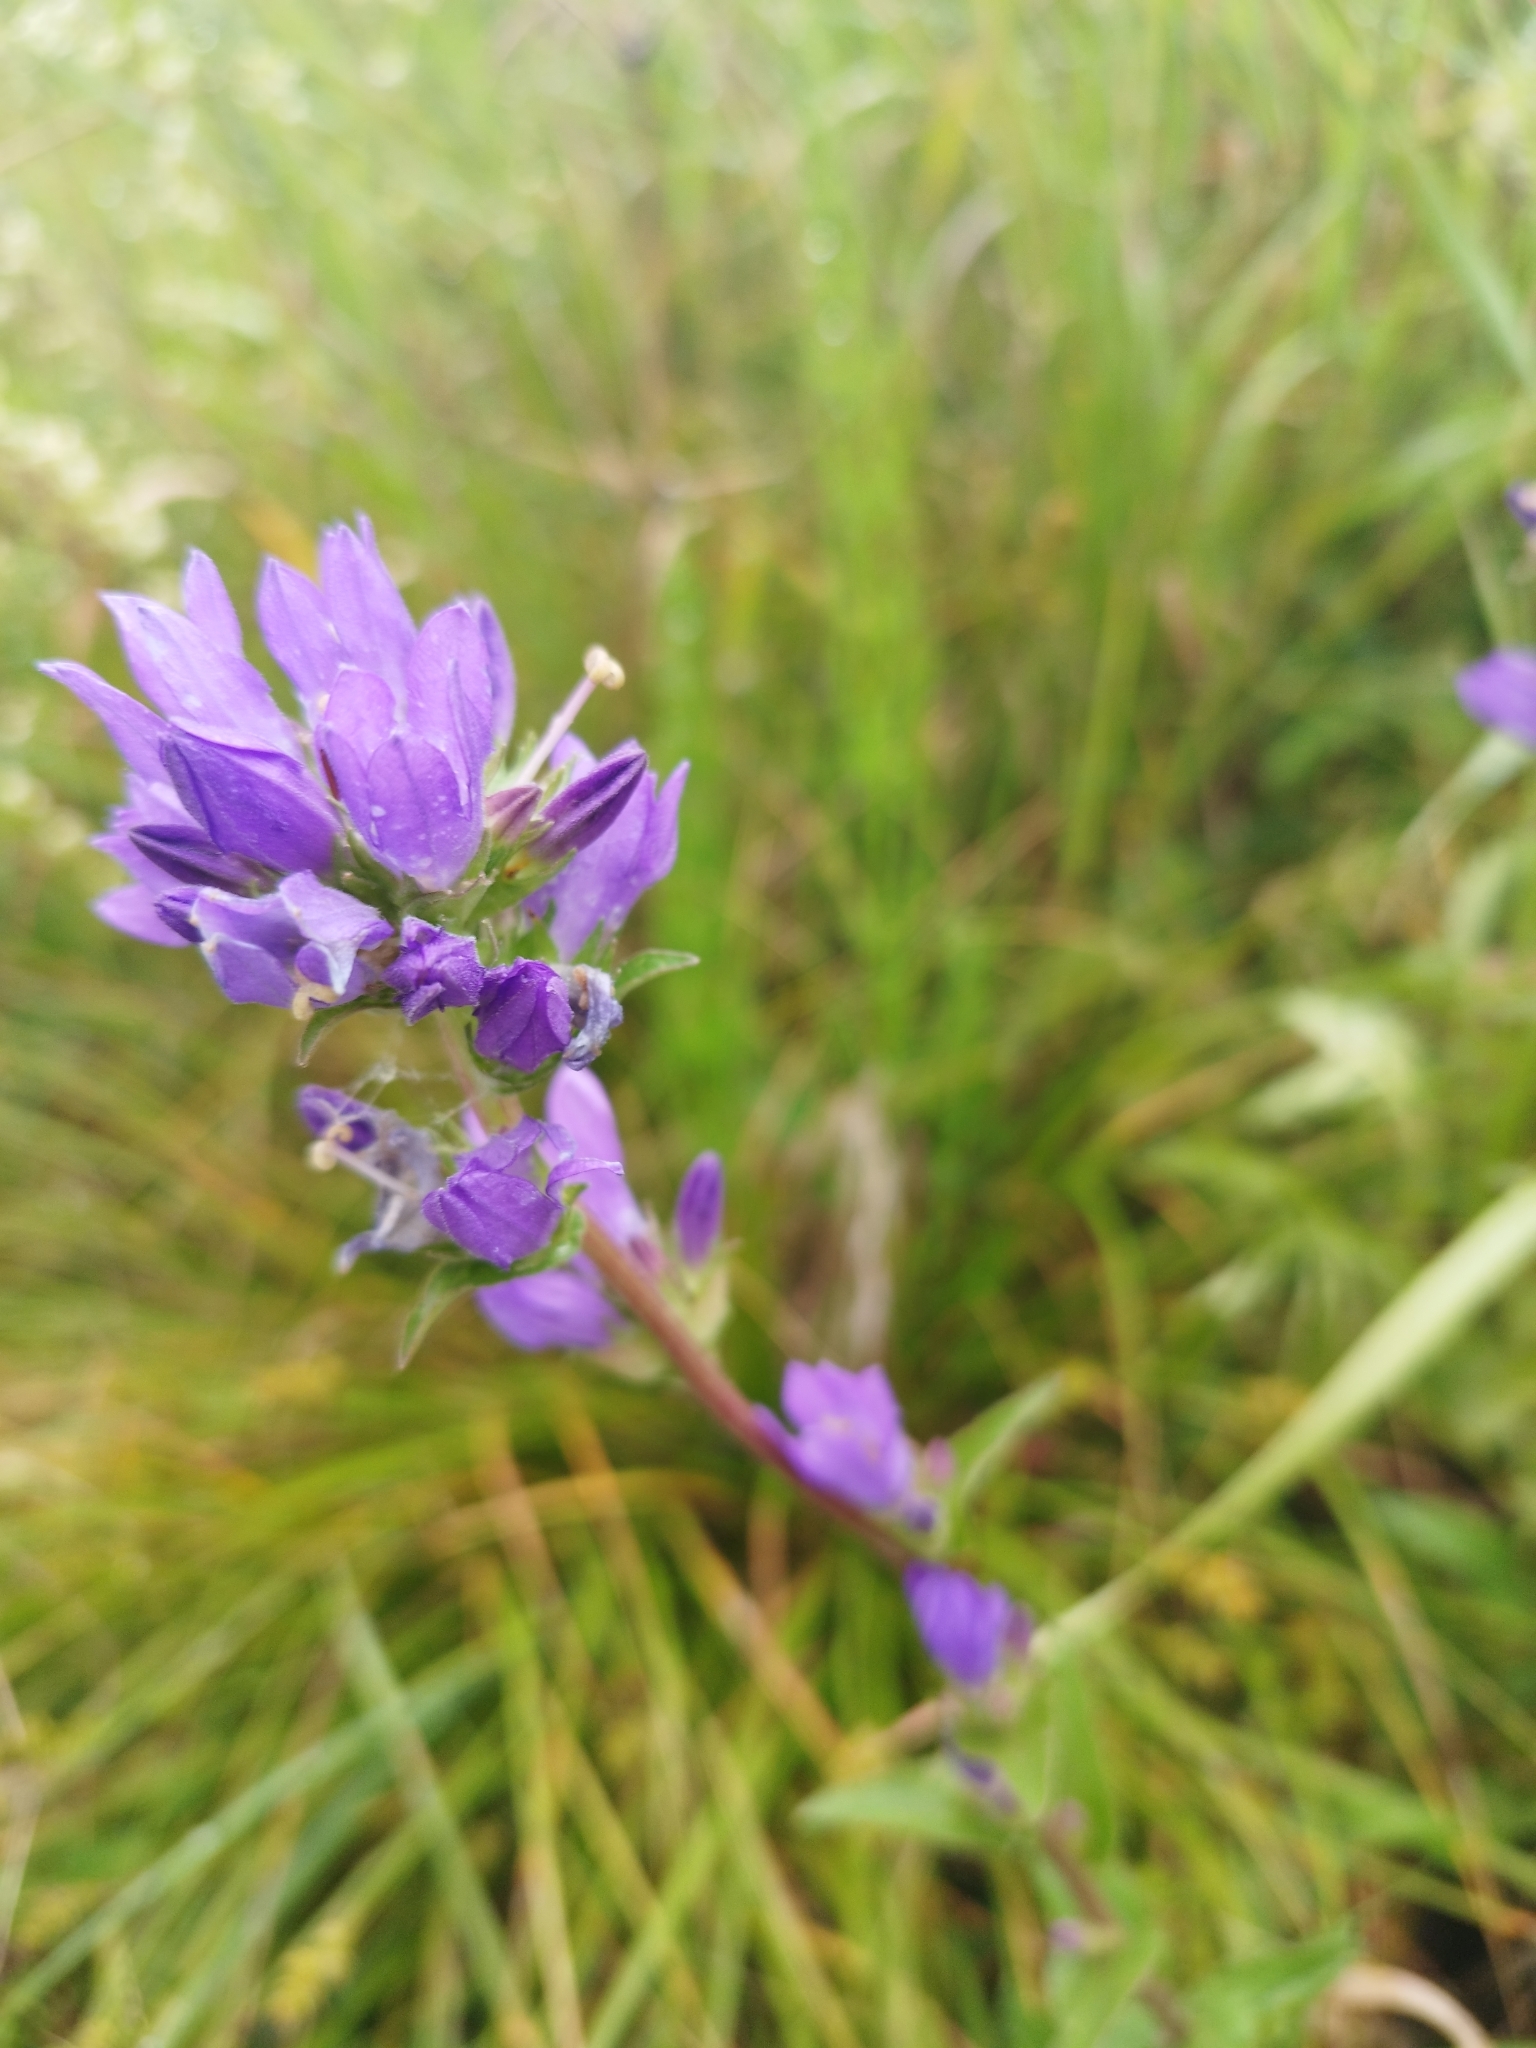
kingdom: Plantae
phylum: Tracheophyta
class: Magnoliopsida
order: Asterales
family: Campanulaceae
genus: Campanula
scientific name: Campanula glomerata
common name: Clustered bellflower
